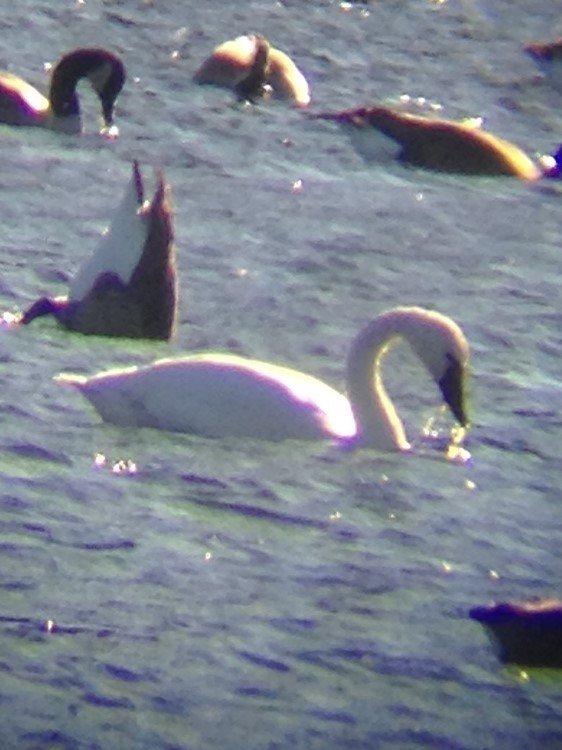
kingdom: Animalia
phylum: Chordata
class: Aves
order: Anseriformes
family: Anatidae
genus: Cygnus
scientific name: Cygnus columbianus
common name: Tundra swan
